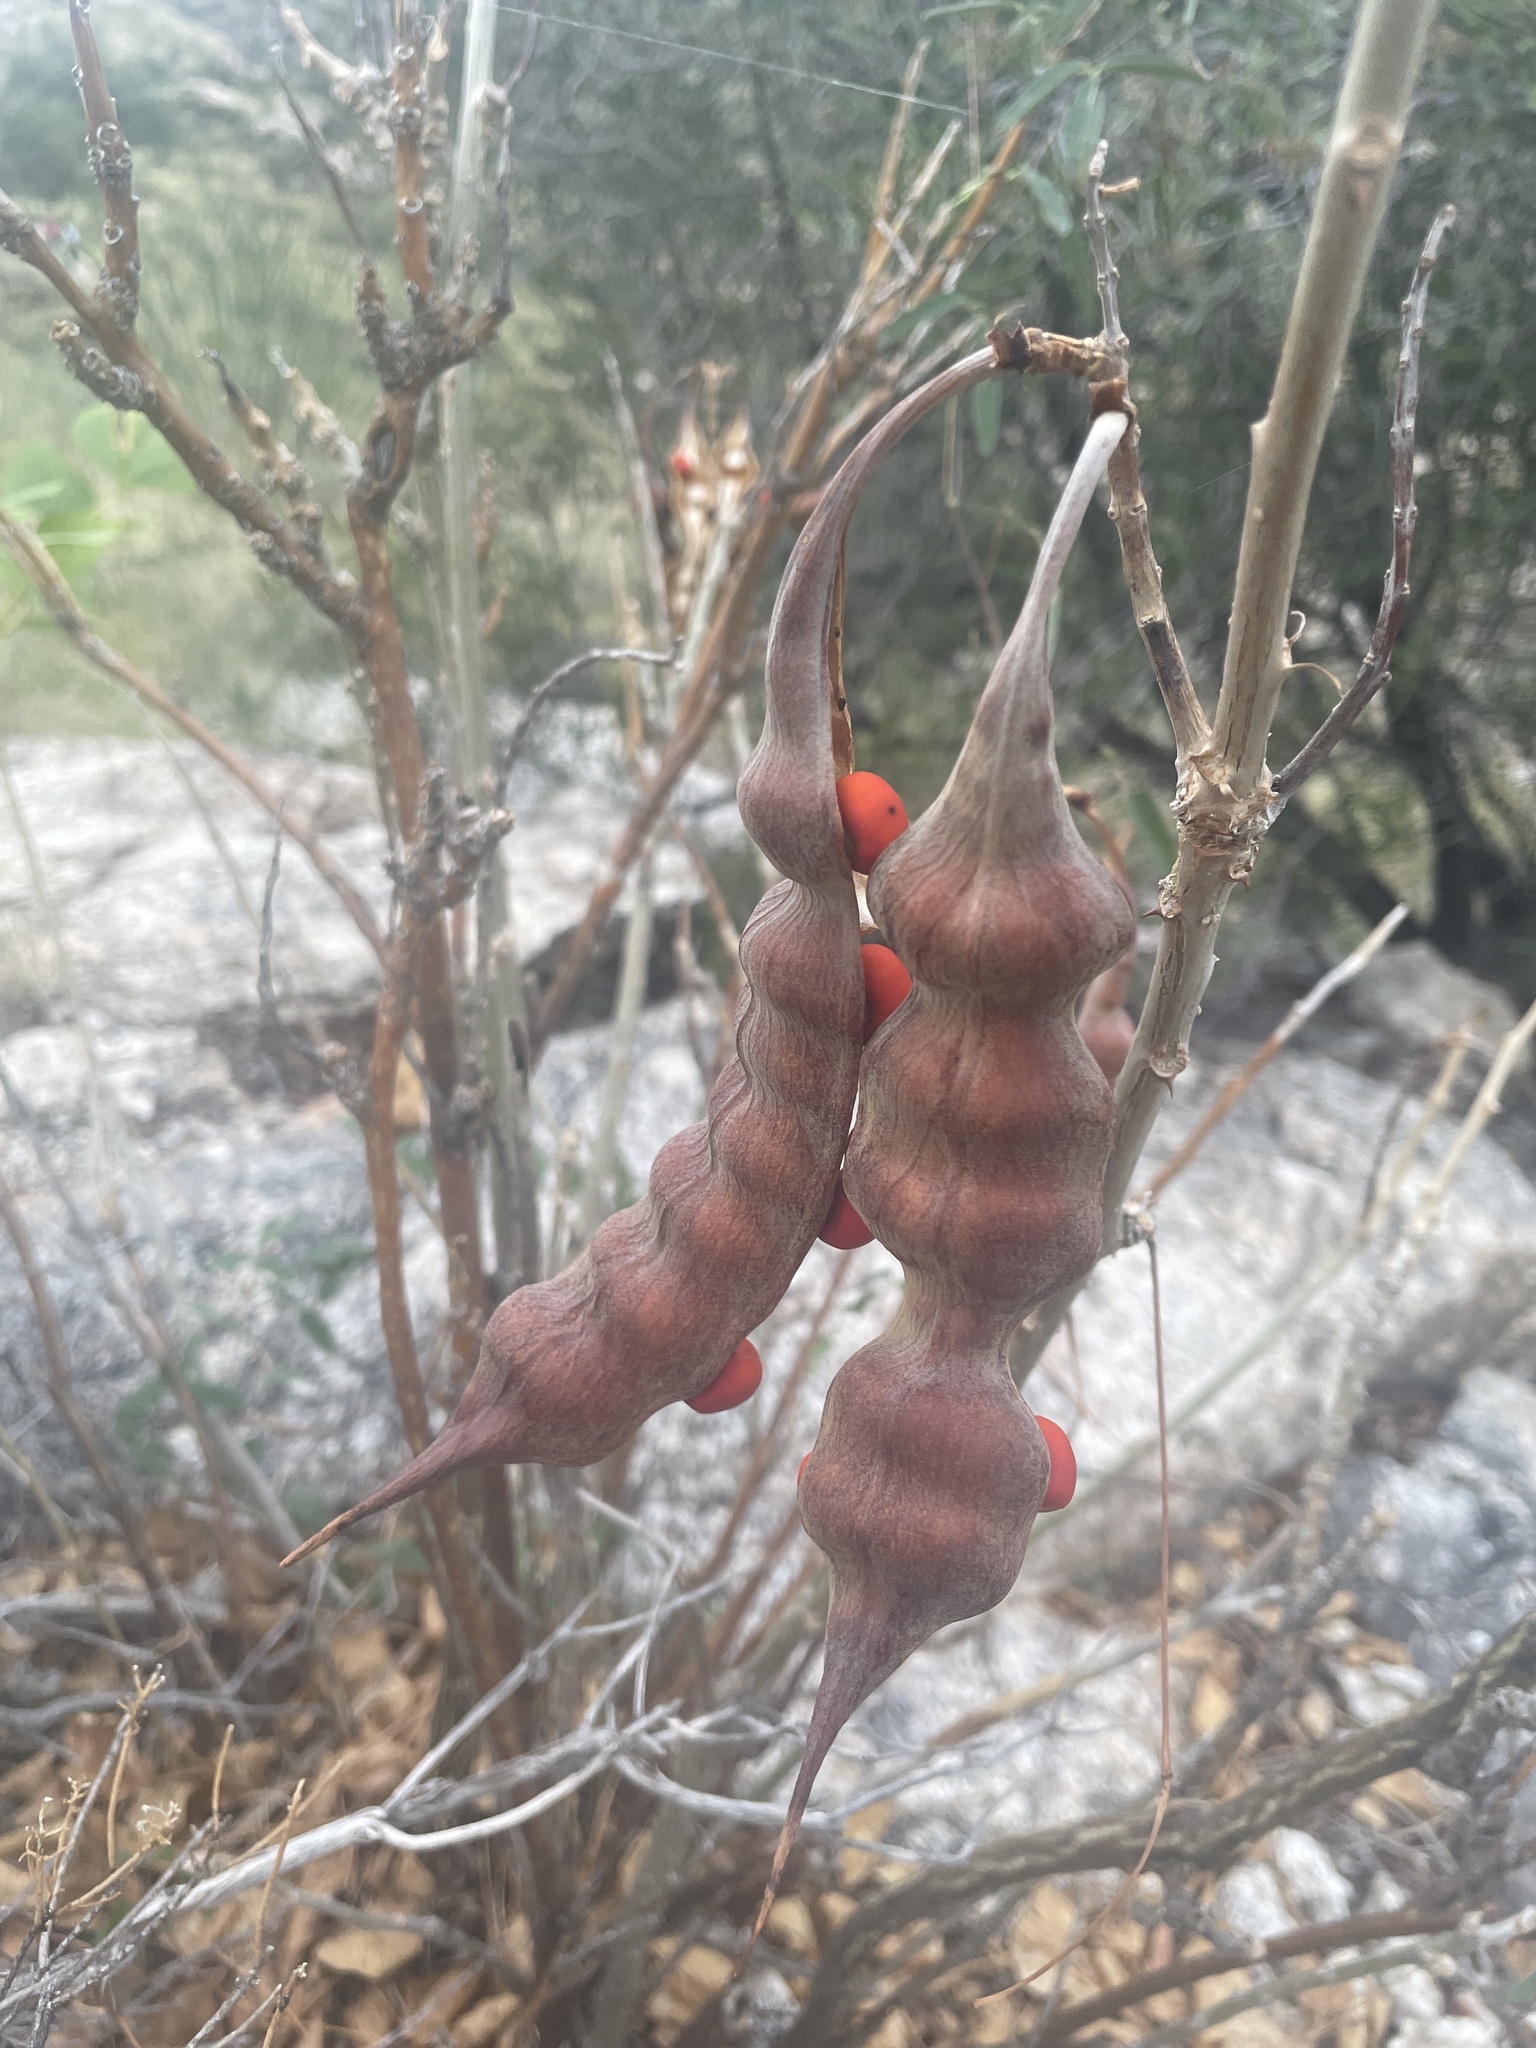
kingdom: Plantae
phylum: Tracheophyta
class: Magnoliopsida
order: Fabales
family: Fabaceae
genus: Erythrina
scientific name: Erythrina flabelliformis
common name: Chilicote
